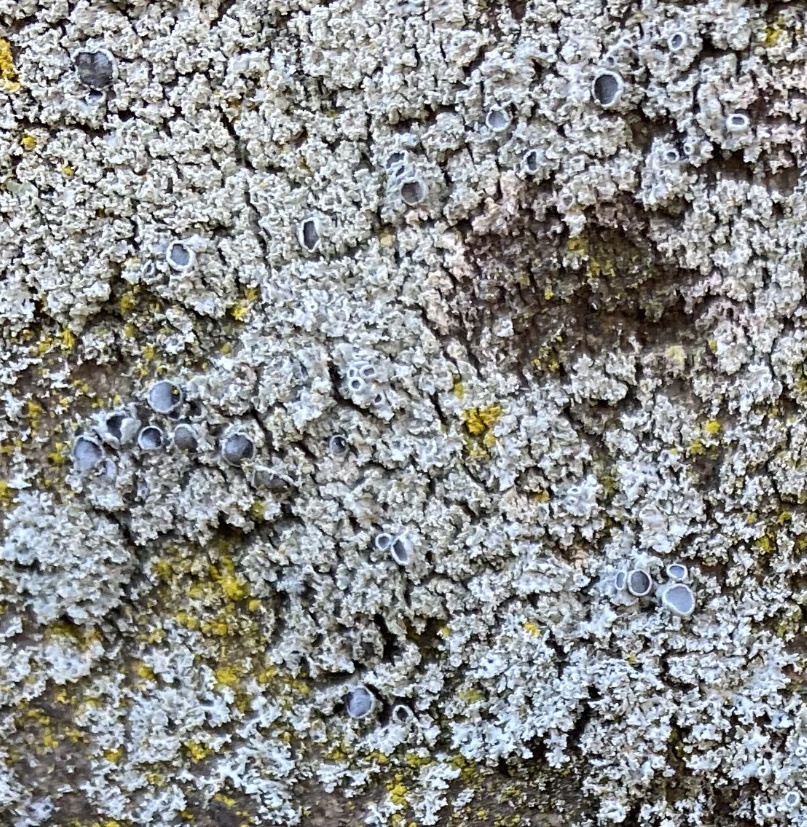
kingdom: Fungi
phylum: Ascomycota
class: Lecanoromycetes
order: Caliciales
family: Physciaceae
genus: Physcia
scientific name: Physcia millegrana
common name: Rosette lichen
